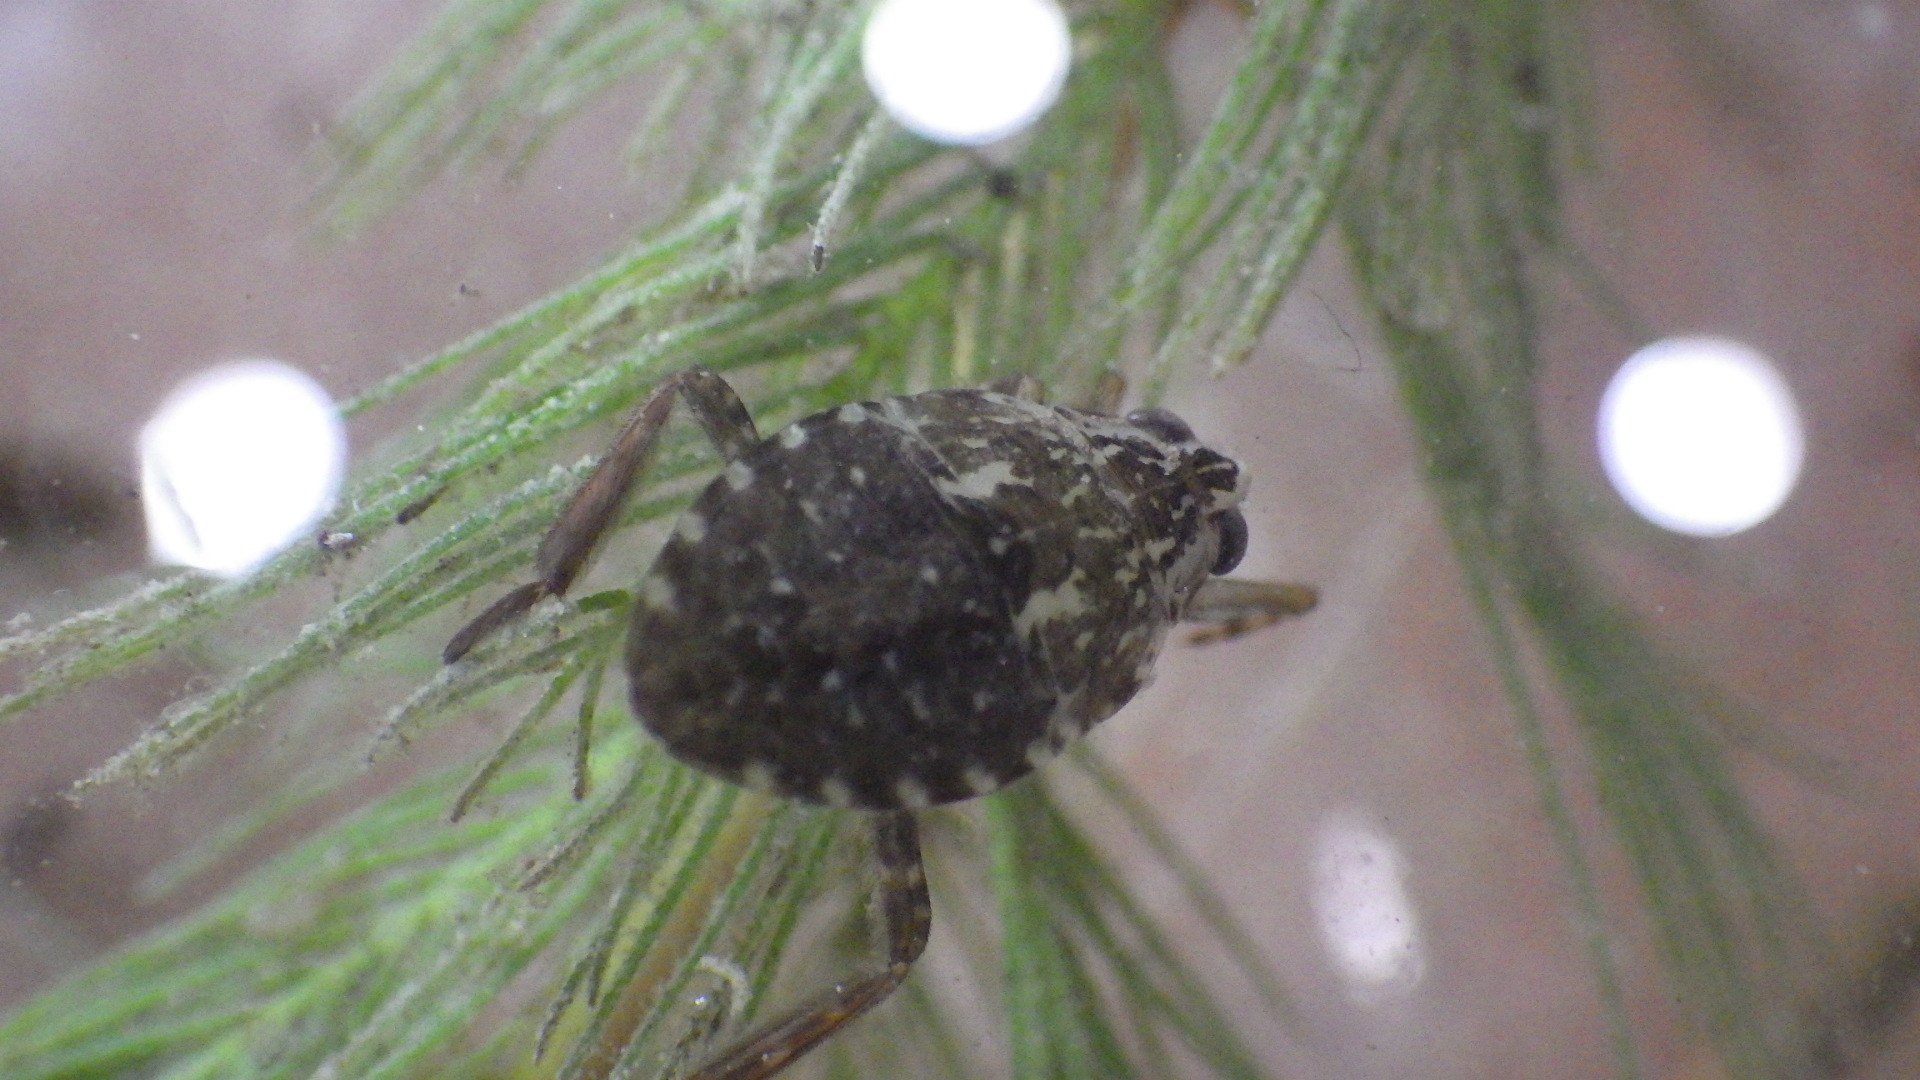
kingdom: Animalia
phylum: Arthropoda
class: Insecta
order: Hemiptera
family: Belostomatidae
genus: Belostoma
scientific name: Belostoma
